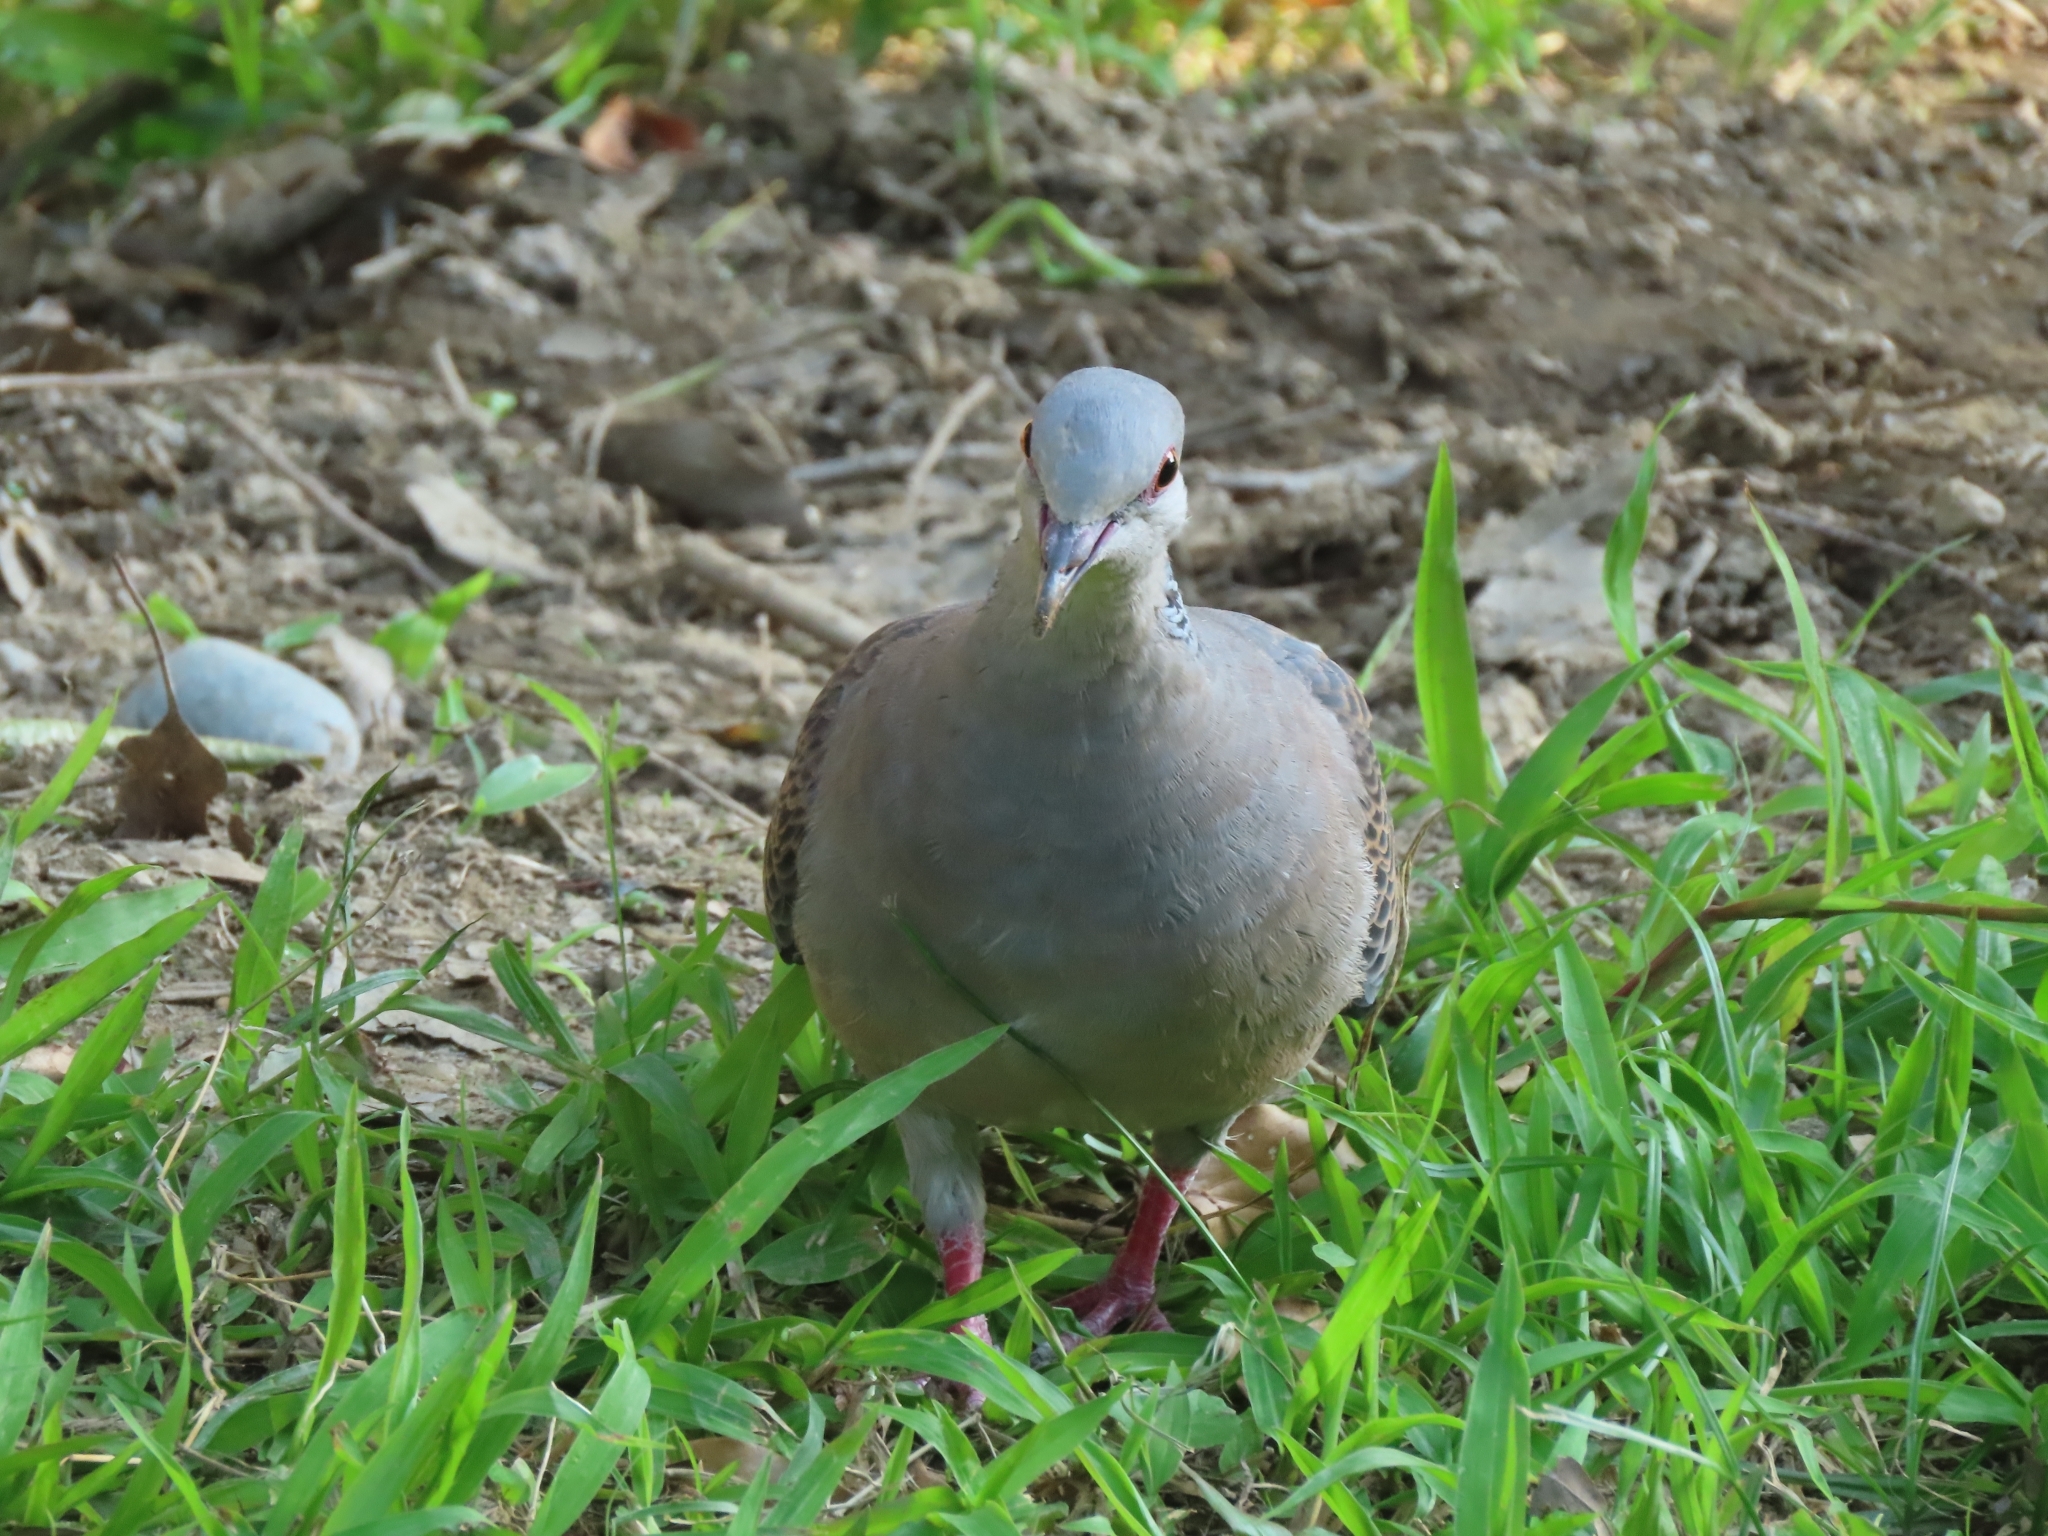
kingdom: Animalia
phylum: Chordata
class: Aves
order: Columbiformes
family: Columbidae
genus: Streptopelia
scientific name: Streptopelia orientalis
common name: Oriental turtle dove
